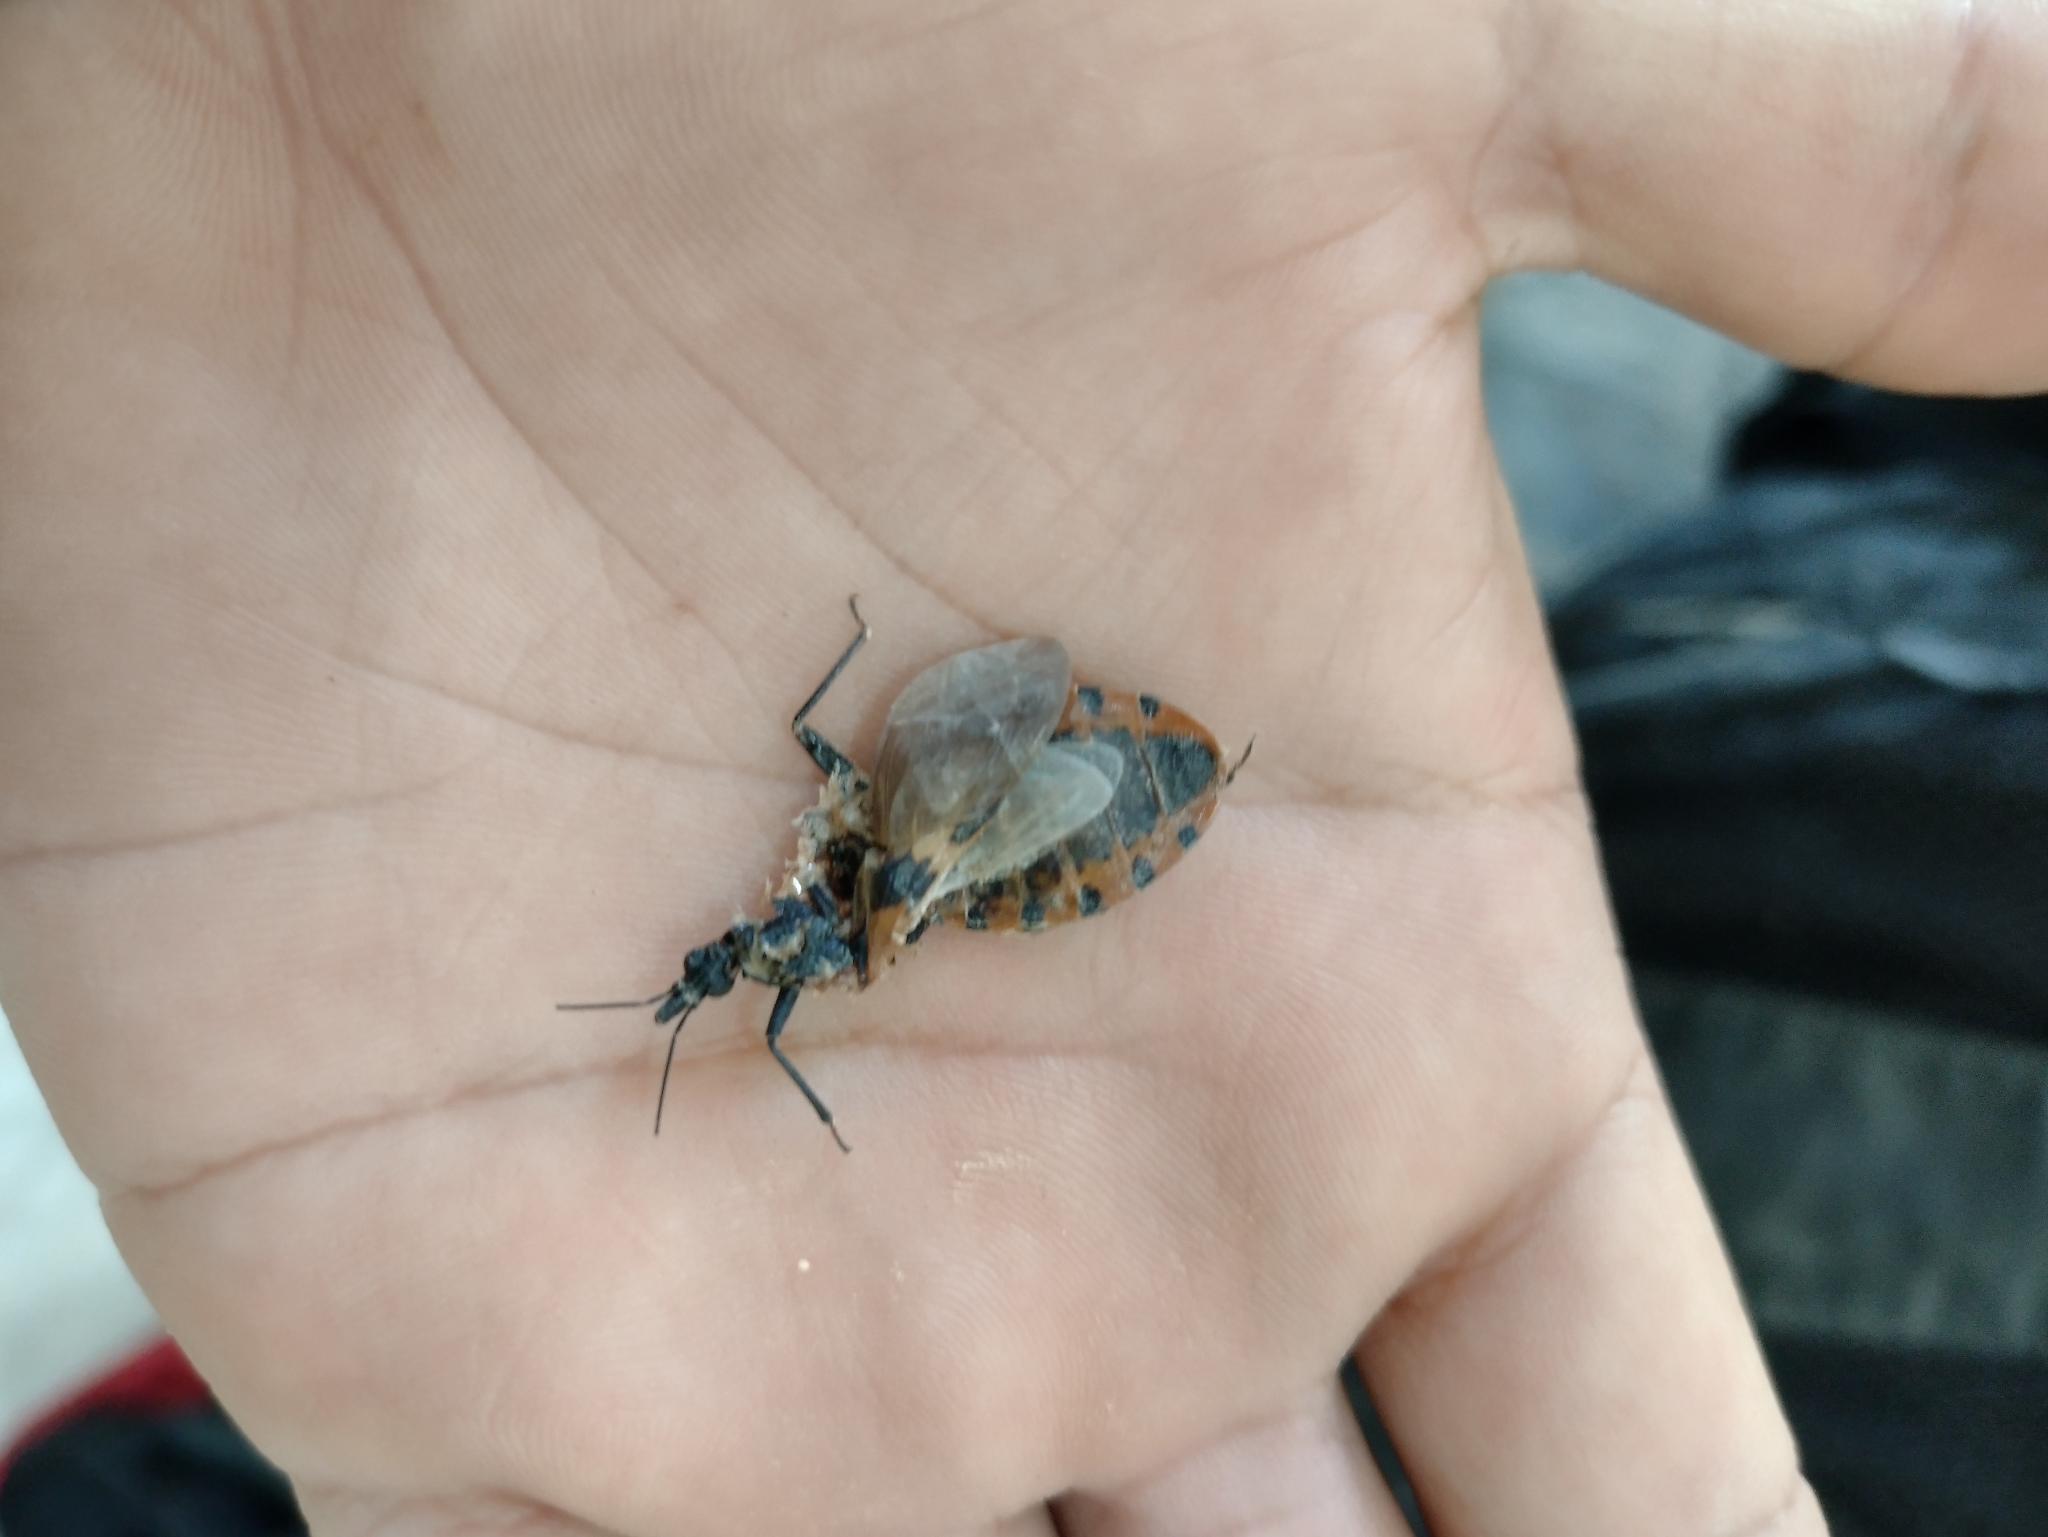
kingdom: Animalia
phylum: Arthropoda
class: Insecta
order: Hemiptera
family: Reduviidae
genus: Meccus
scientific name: Meccus dimidiatus
